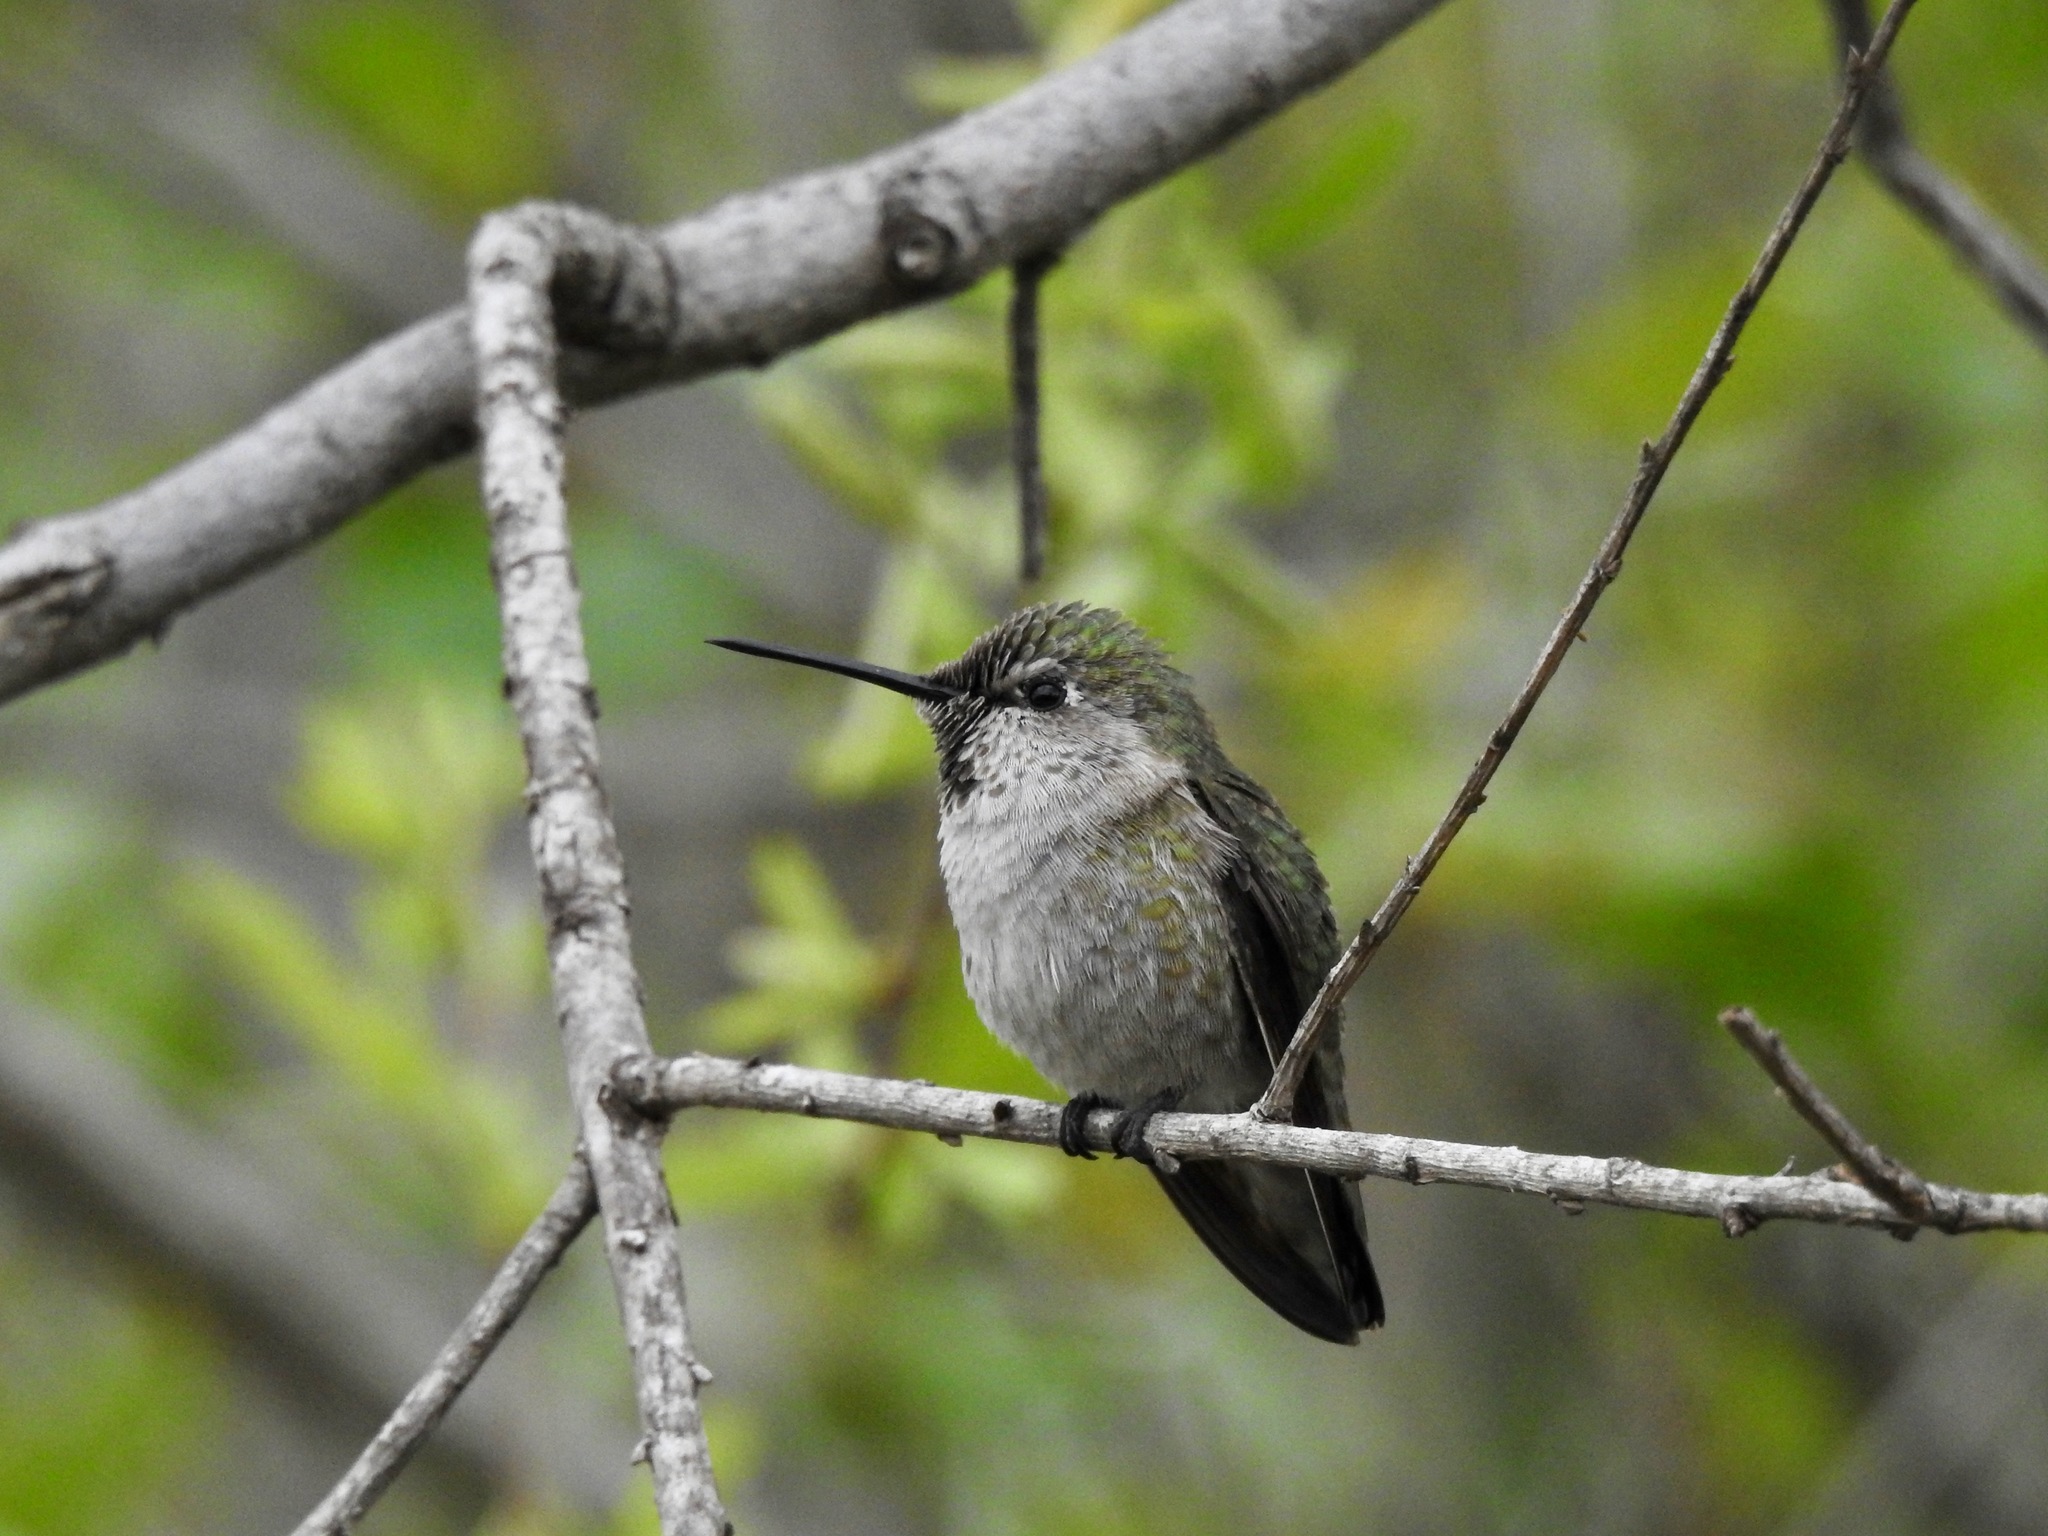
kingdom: Animalia
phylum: Chordata
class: Aves
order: Apodiformes
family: Trochilidae
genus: Calypte
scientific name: Calypte anna
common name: Anna's hummingbird
